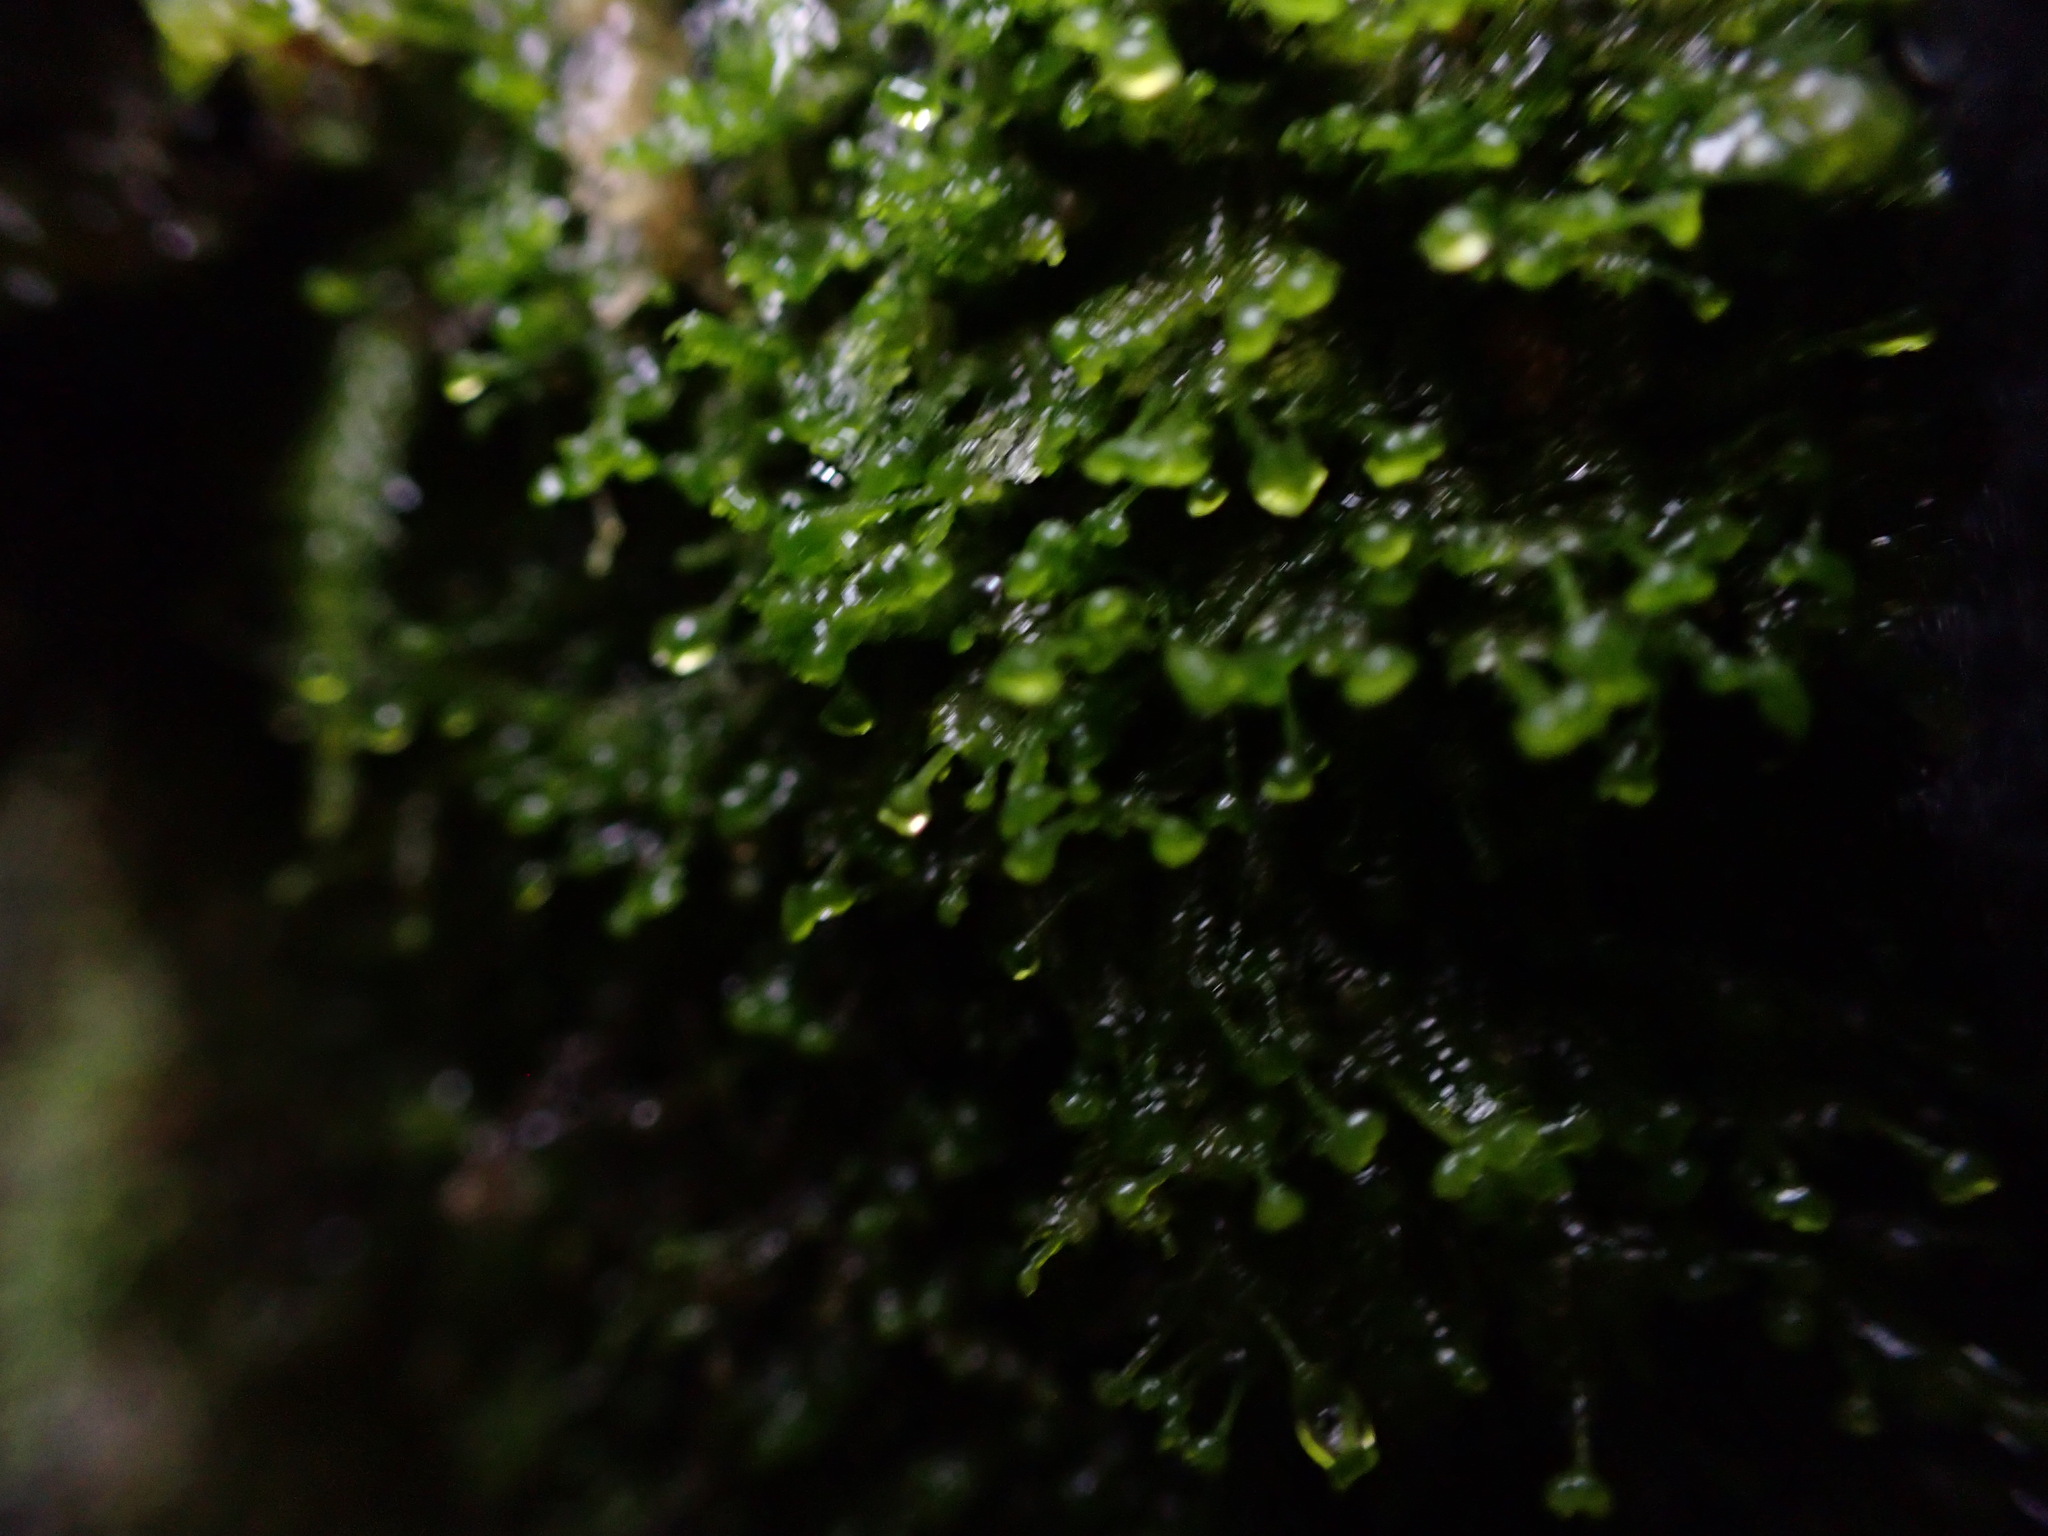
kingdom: Plantae
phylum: Marchantiophyta
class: Jungermanniopsida
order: Jungermanniales
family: Lepidoziaceae
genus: Bazzania
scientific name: Bazzania denudata
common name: Naked whipwort
